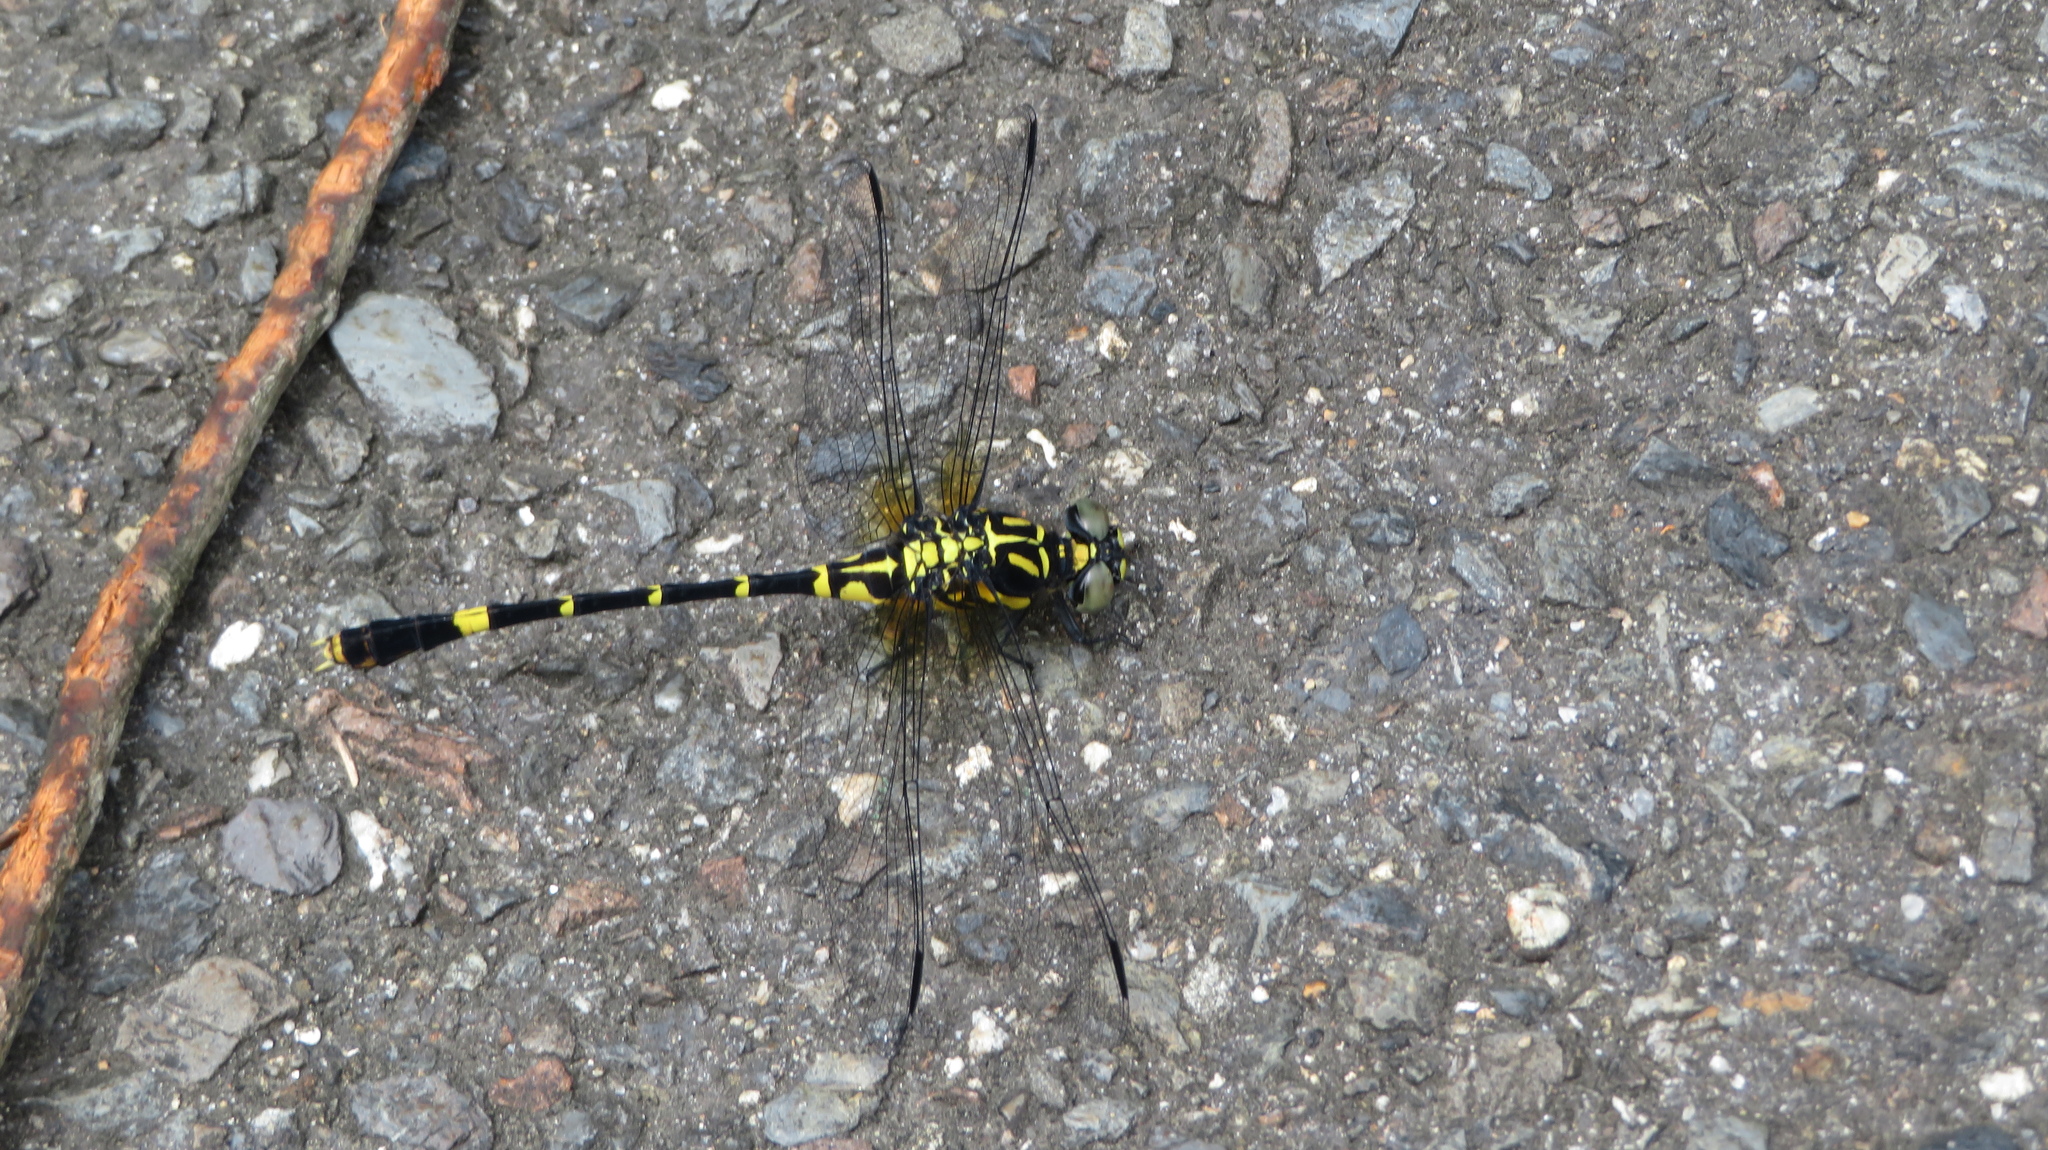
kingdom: Animalia
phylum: Arthropoda
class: Insecta
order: Odonata
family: Gomphidae
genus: Melligomphus
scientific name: Melligomphus viridicostus
